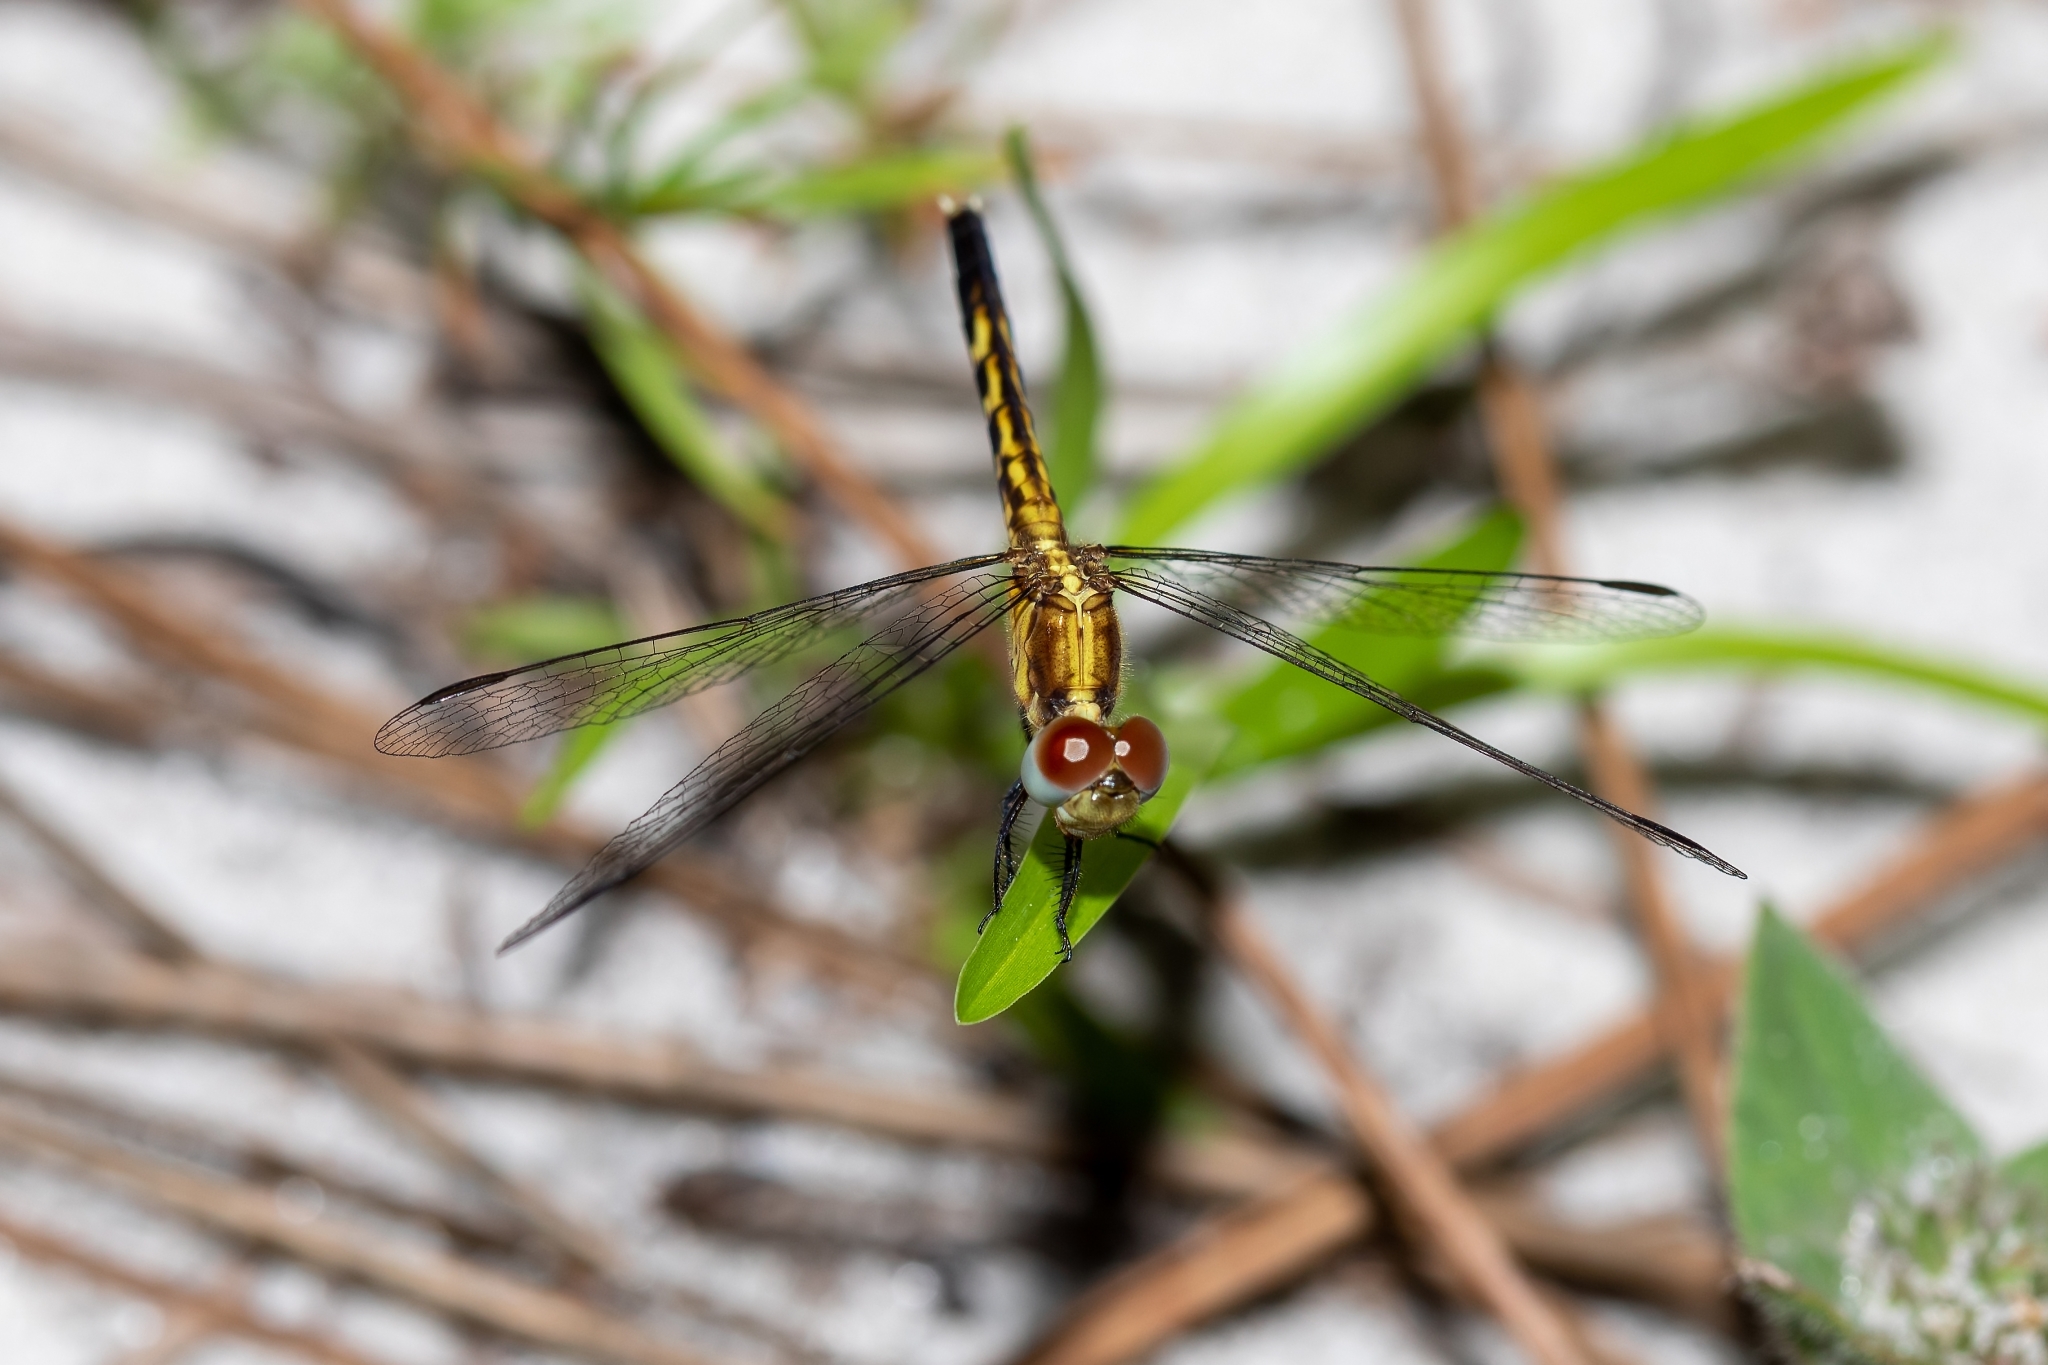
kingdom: Animalia
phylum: Arthropoda
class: Insecta
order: Odonata
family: Libellulidae
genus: Erythrodiplax
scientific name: Erythrodiplax minuscula
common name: Little blue dragonlet
